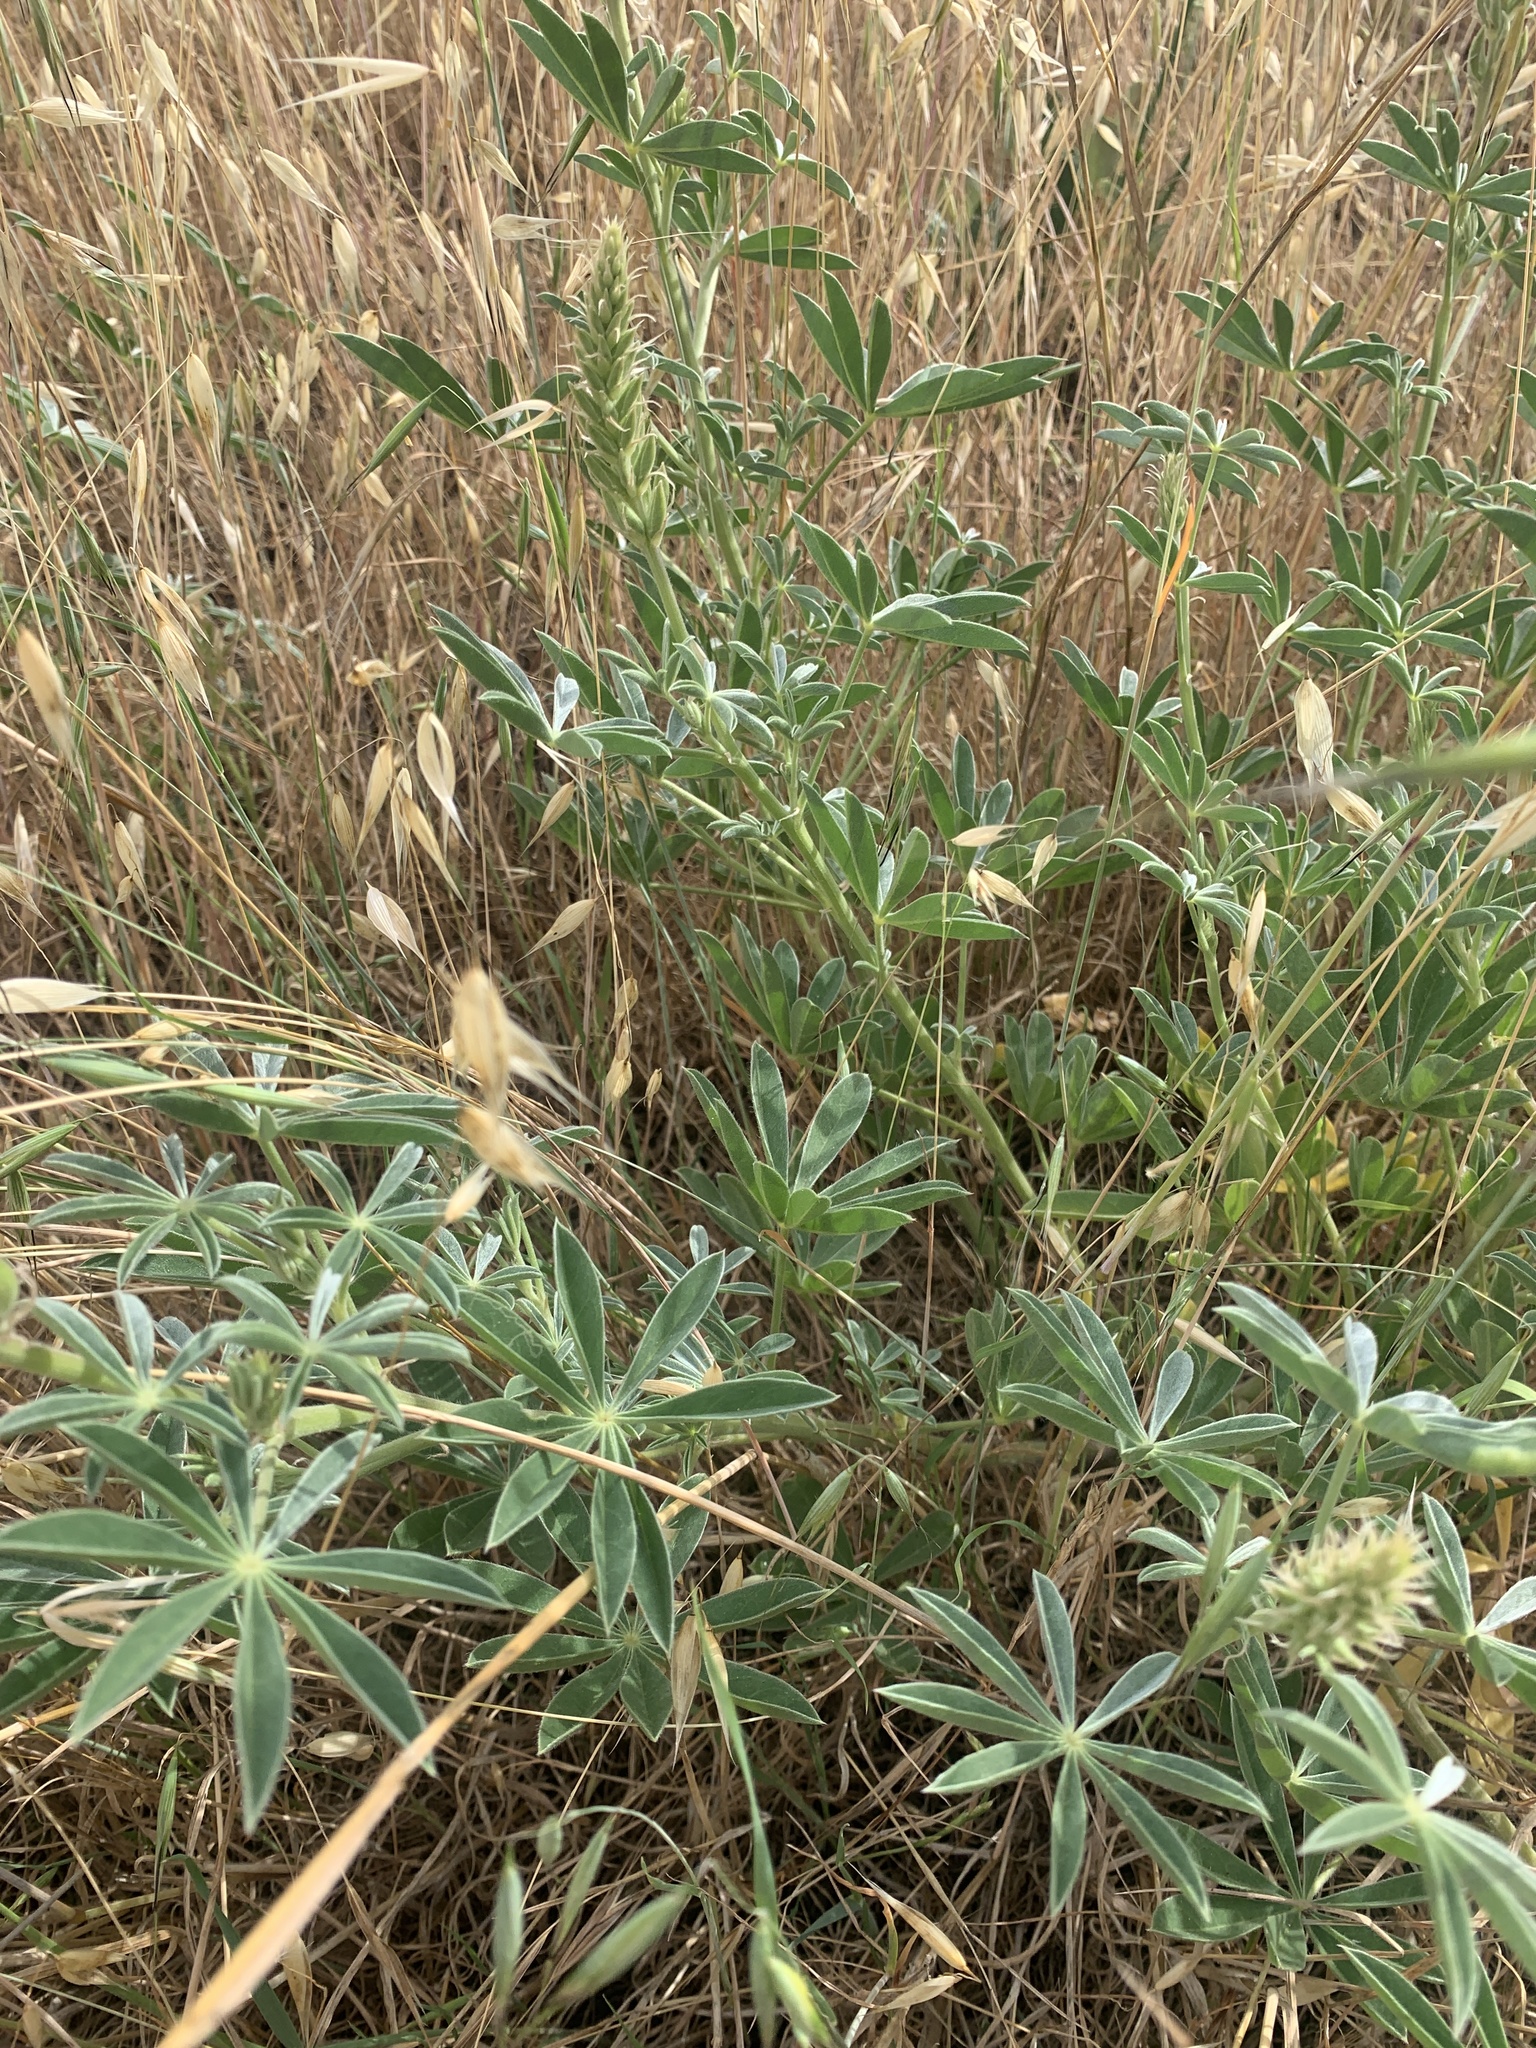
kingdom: Plantae
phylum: Tracheophyta
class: Magnoliopsida
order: Fabales
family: Fabaceae
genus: Lupinus
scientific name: Lupinus formosus
